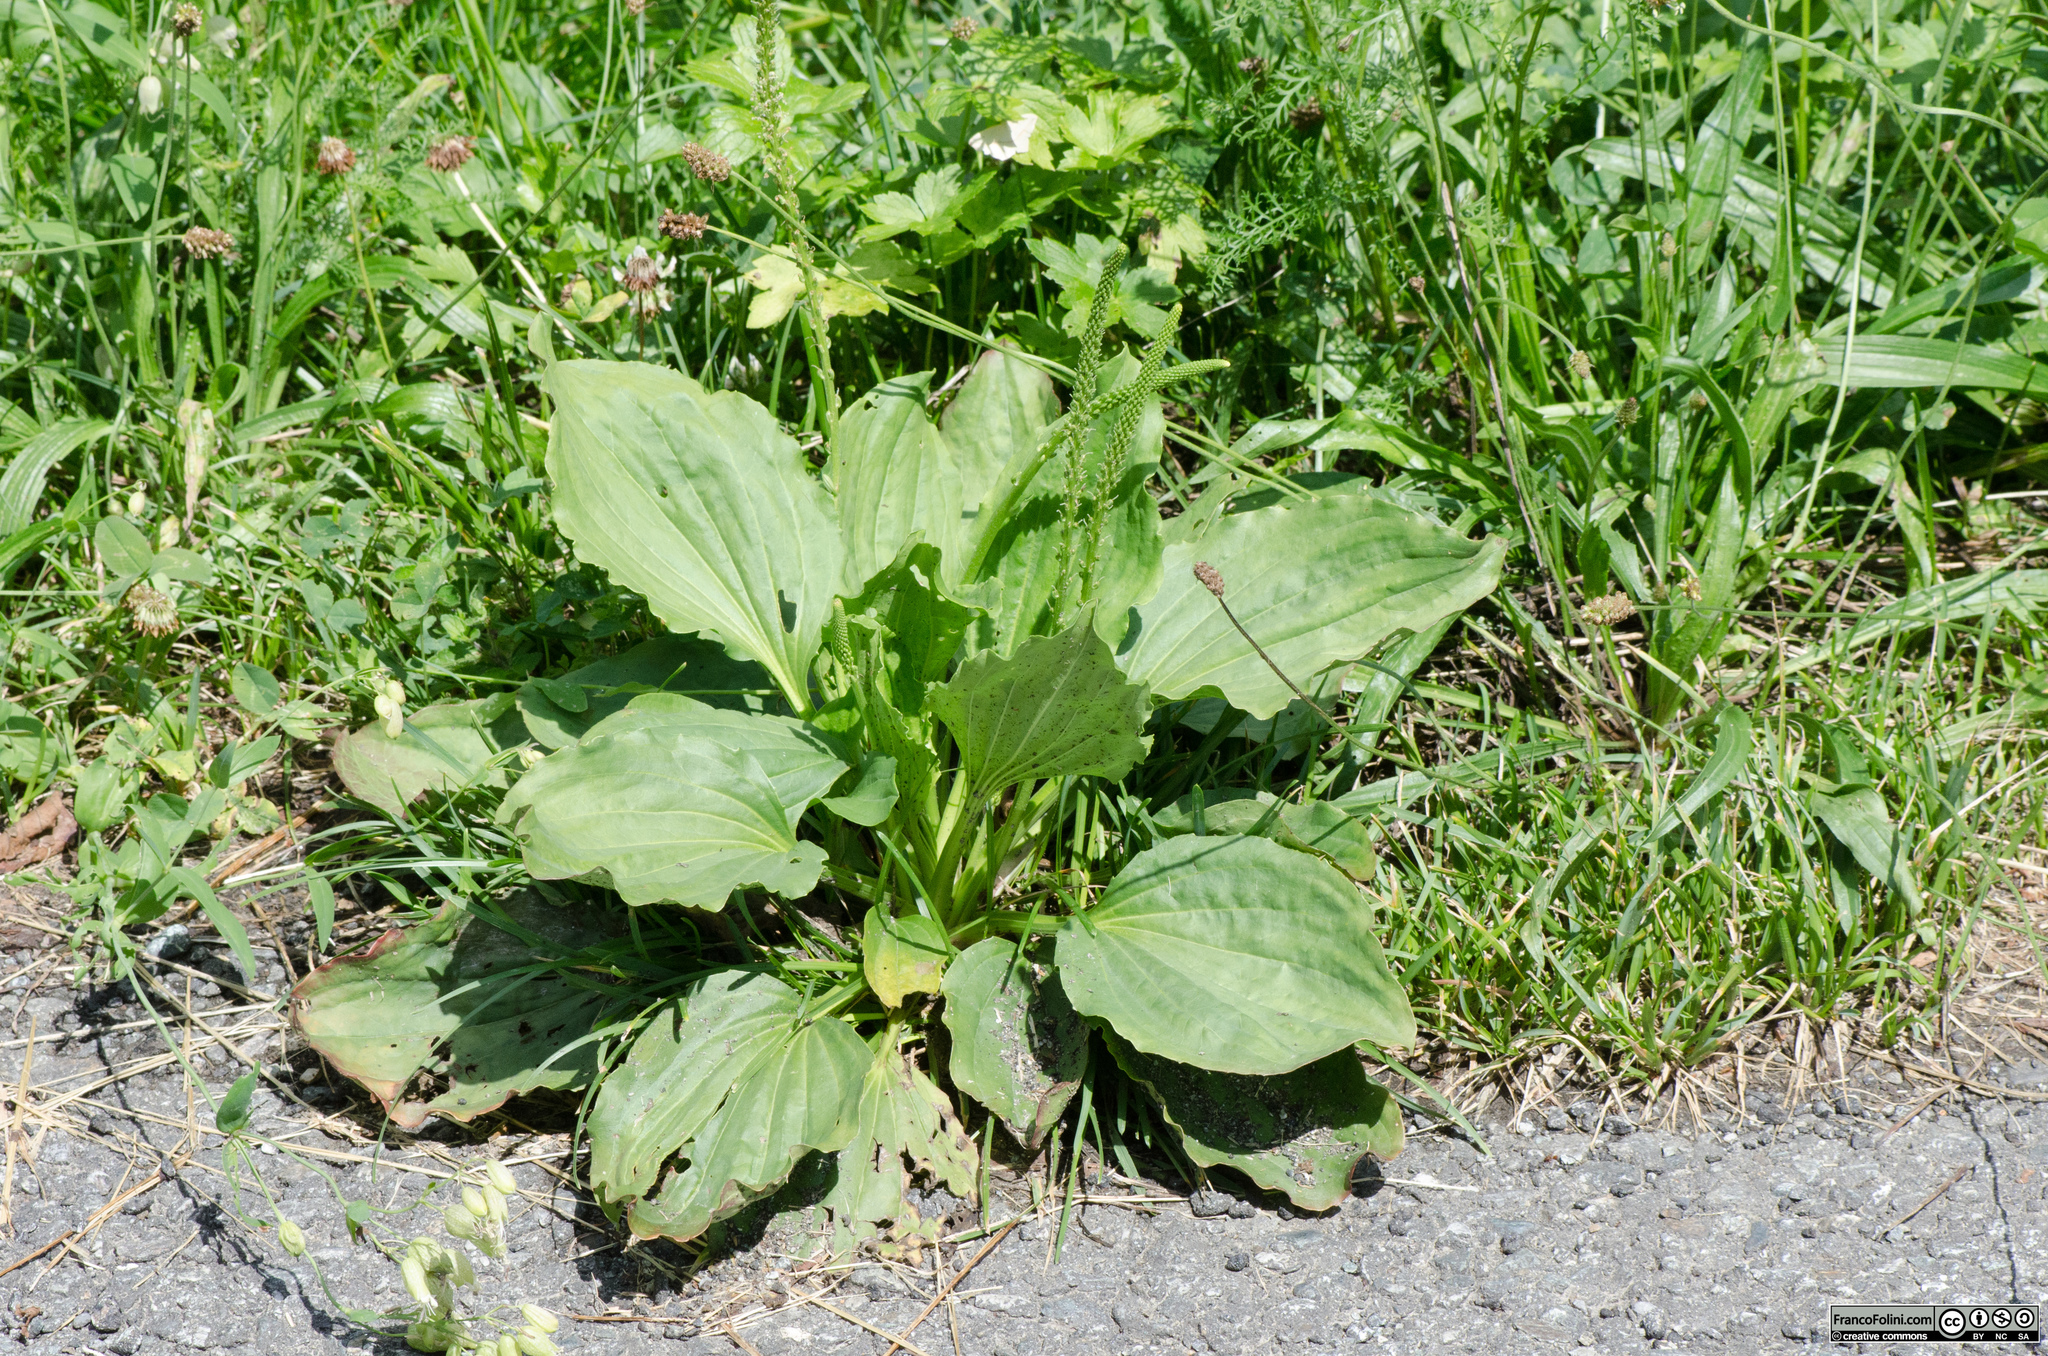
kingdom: Plantae
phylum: Tracheophyta
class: Magnoliopsida
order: Lamiales
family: Plantaginaceae
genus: Plantago
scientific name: Plantago major
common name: Common plantain
